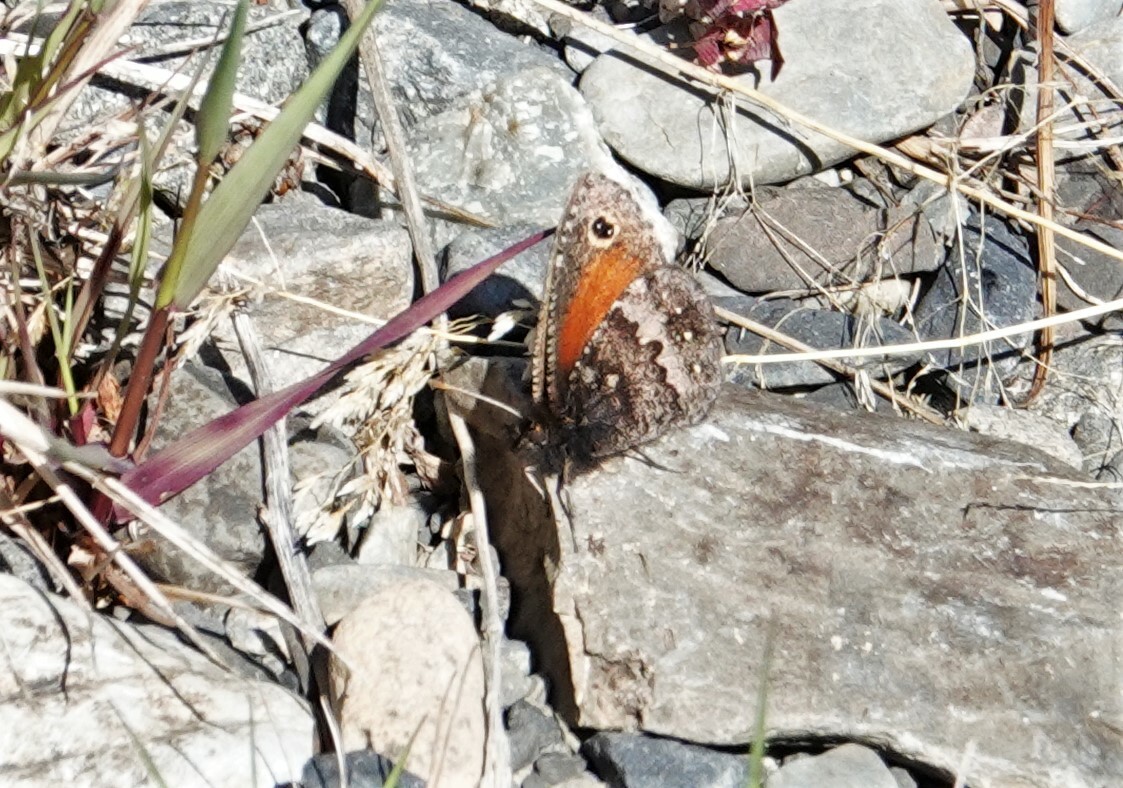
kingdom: Animalia
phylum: Arthropoda
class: Insecta
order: Lepidoptera
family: Nymphalidae
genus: Homoeonympha
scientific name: Homoeonympha boisduvalii
